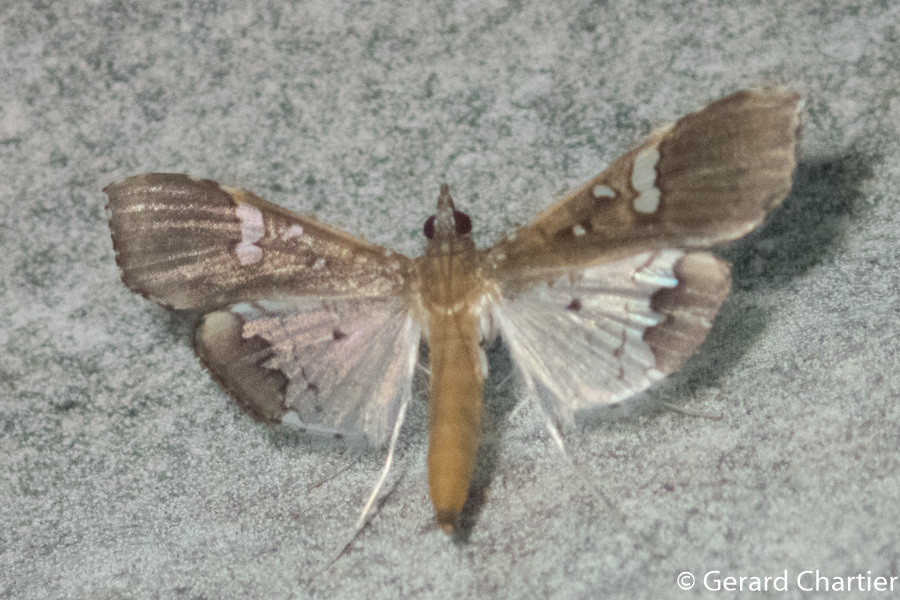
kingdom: Animalia
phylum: Arthropoda
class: Insecta
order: Lepidoptera
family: Crambidae
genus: Maruca
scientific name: Maruca vitrata
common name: Maruca pod borer
